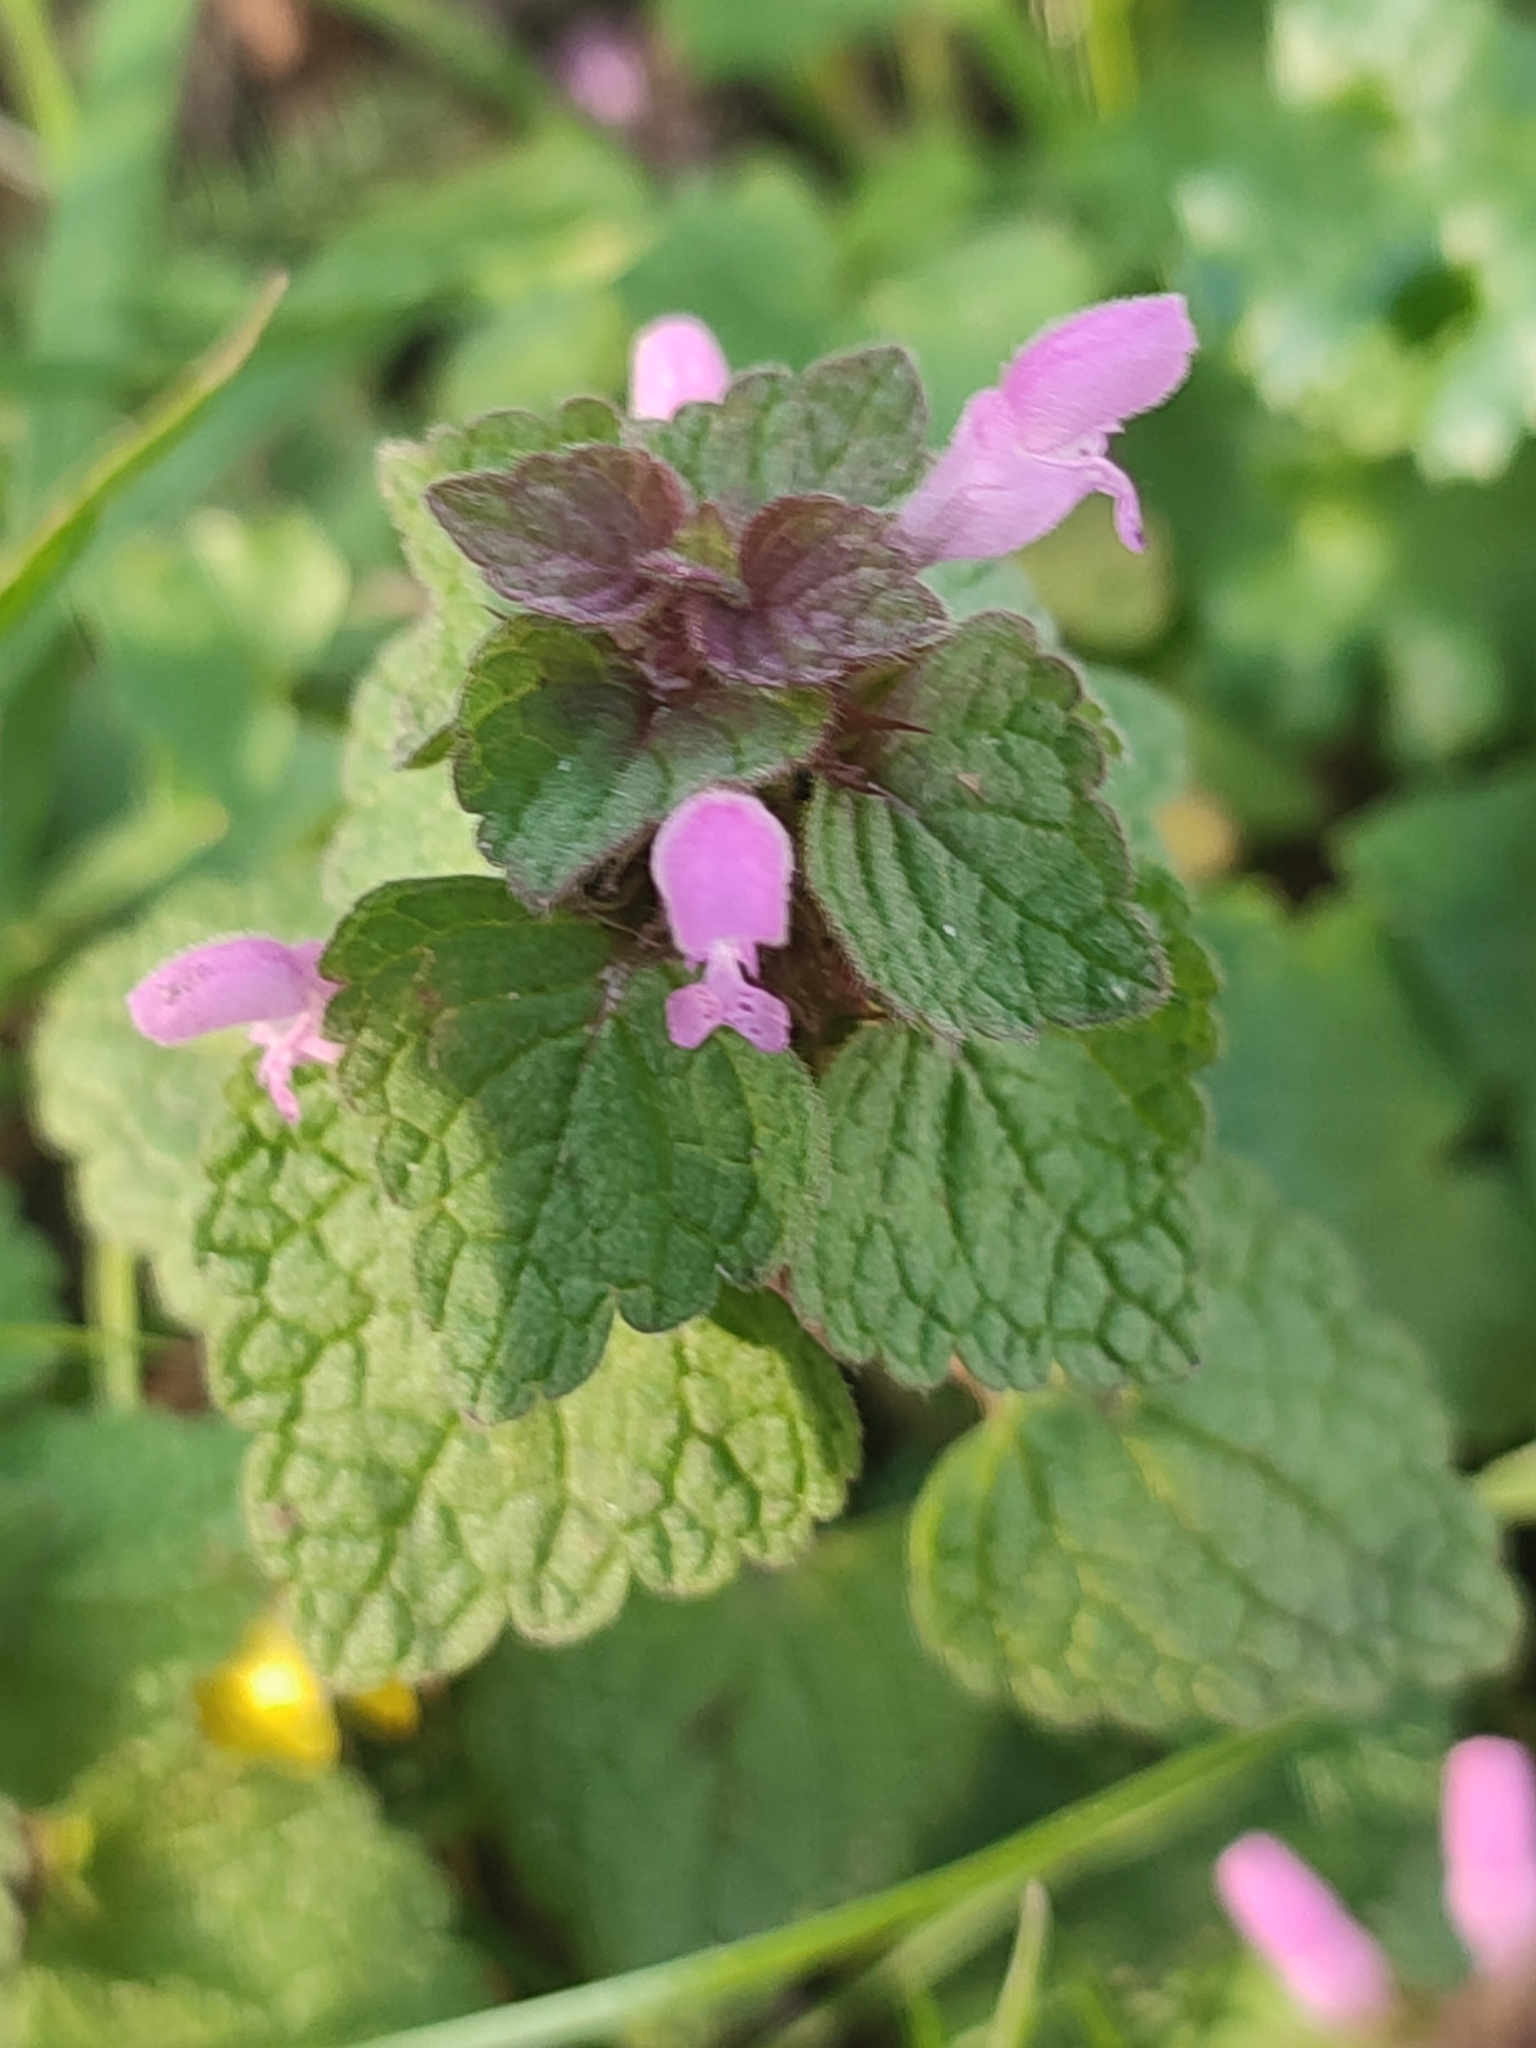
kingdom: Plantae
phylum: Tracheophyta
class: Magnoliopsida
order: Lamiales
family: Lamiaceae
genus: Lamium
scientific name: Lamium purpureum
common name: Red dead-nettle
